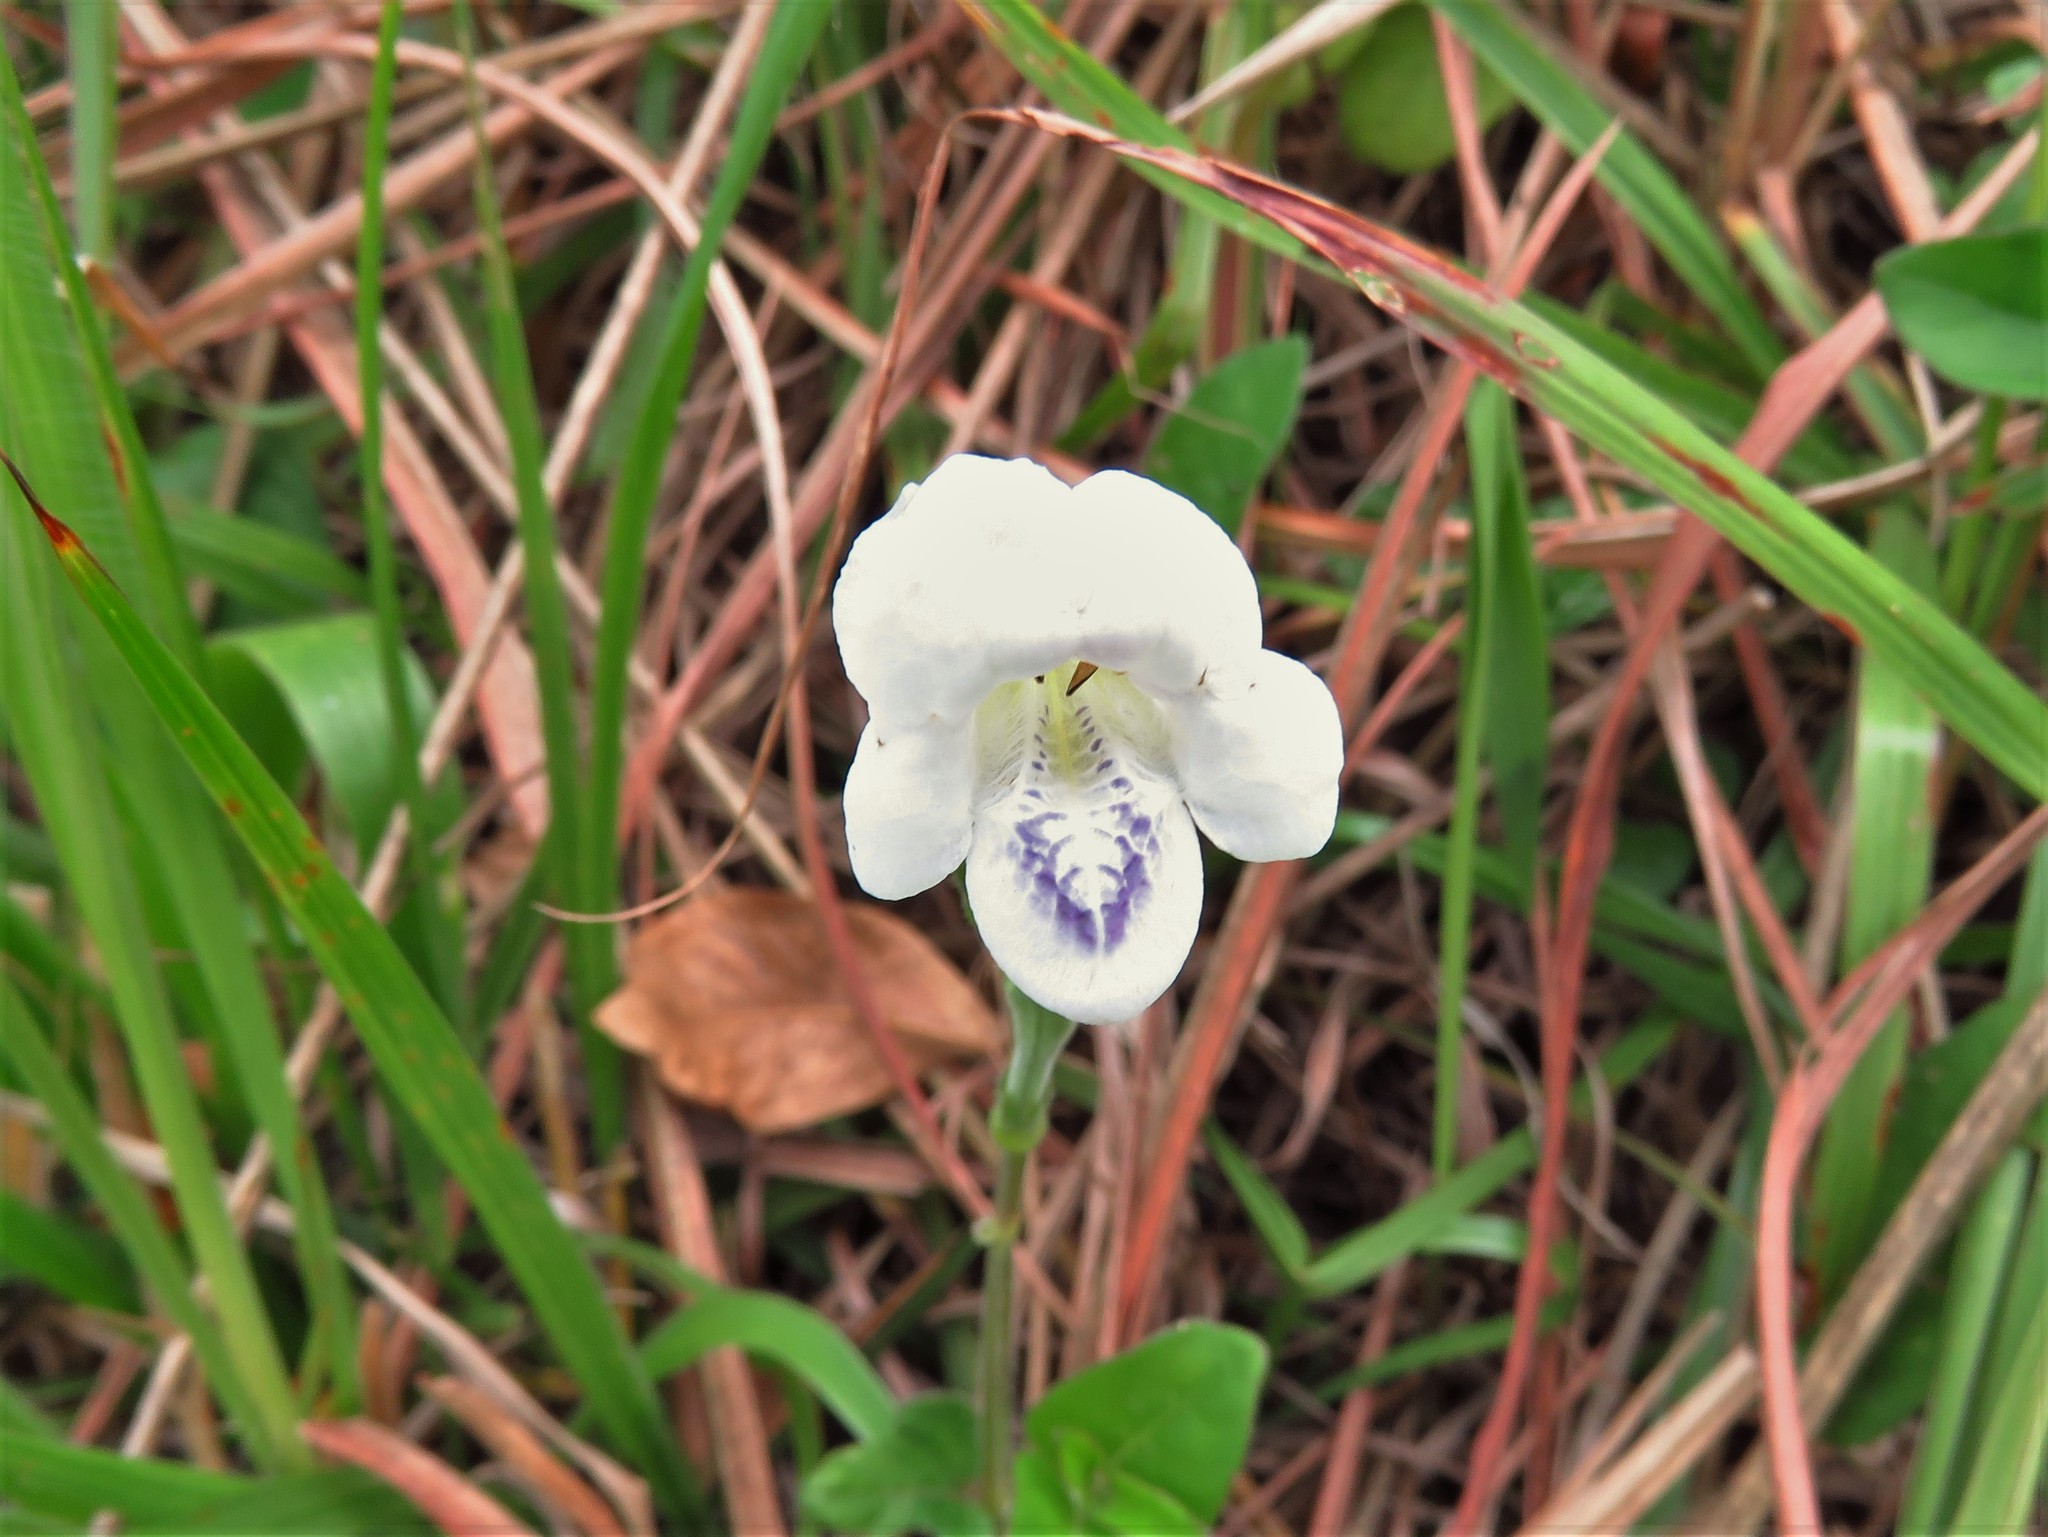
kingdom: Plantae
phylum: Tracheophyta
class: Magnoliopsida
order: Lamiales
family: Acanthaceae
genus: Asystasia
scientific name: Asystasia intrusa
